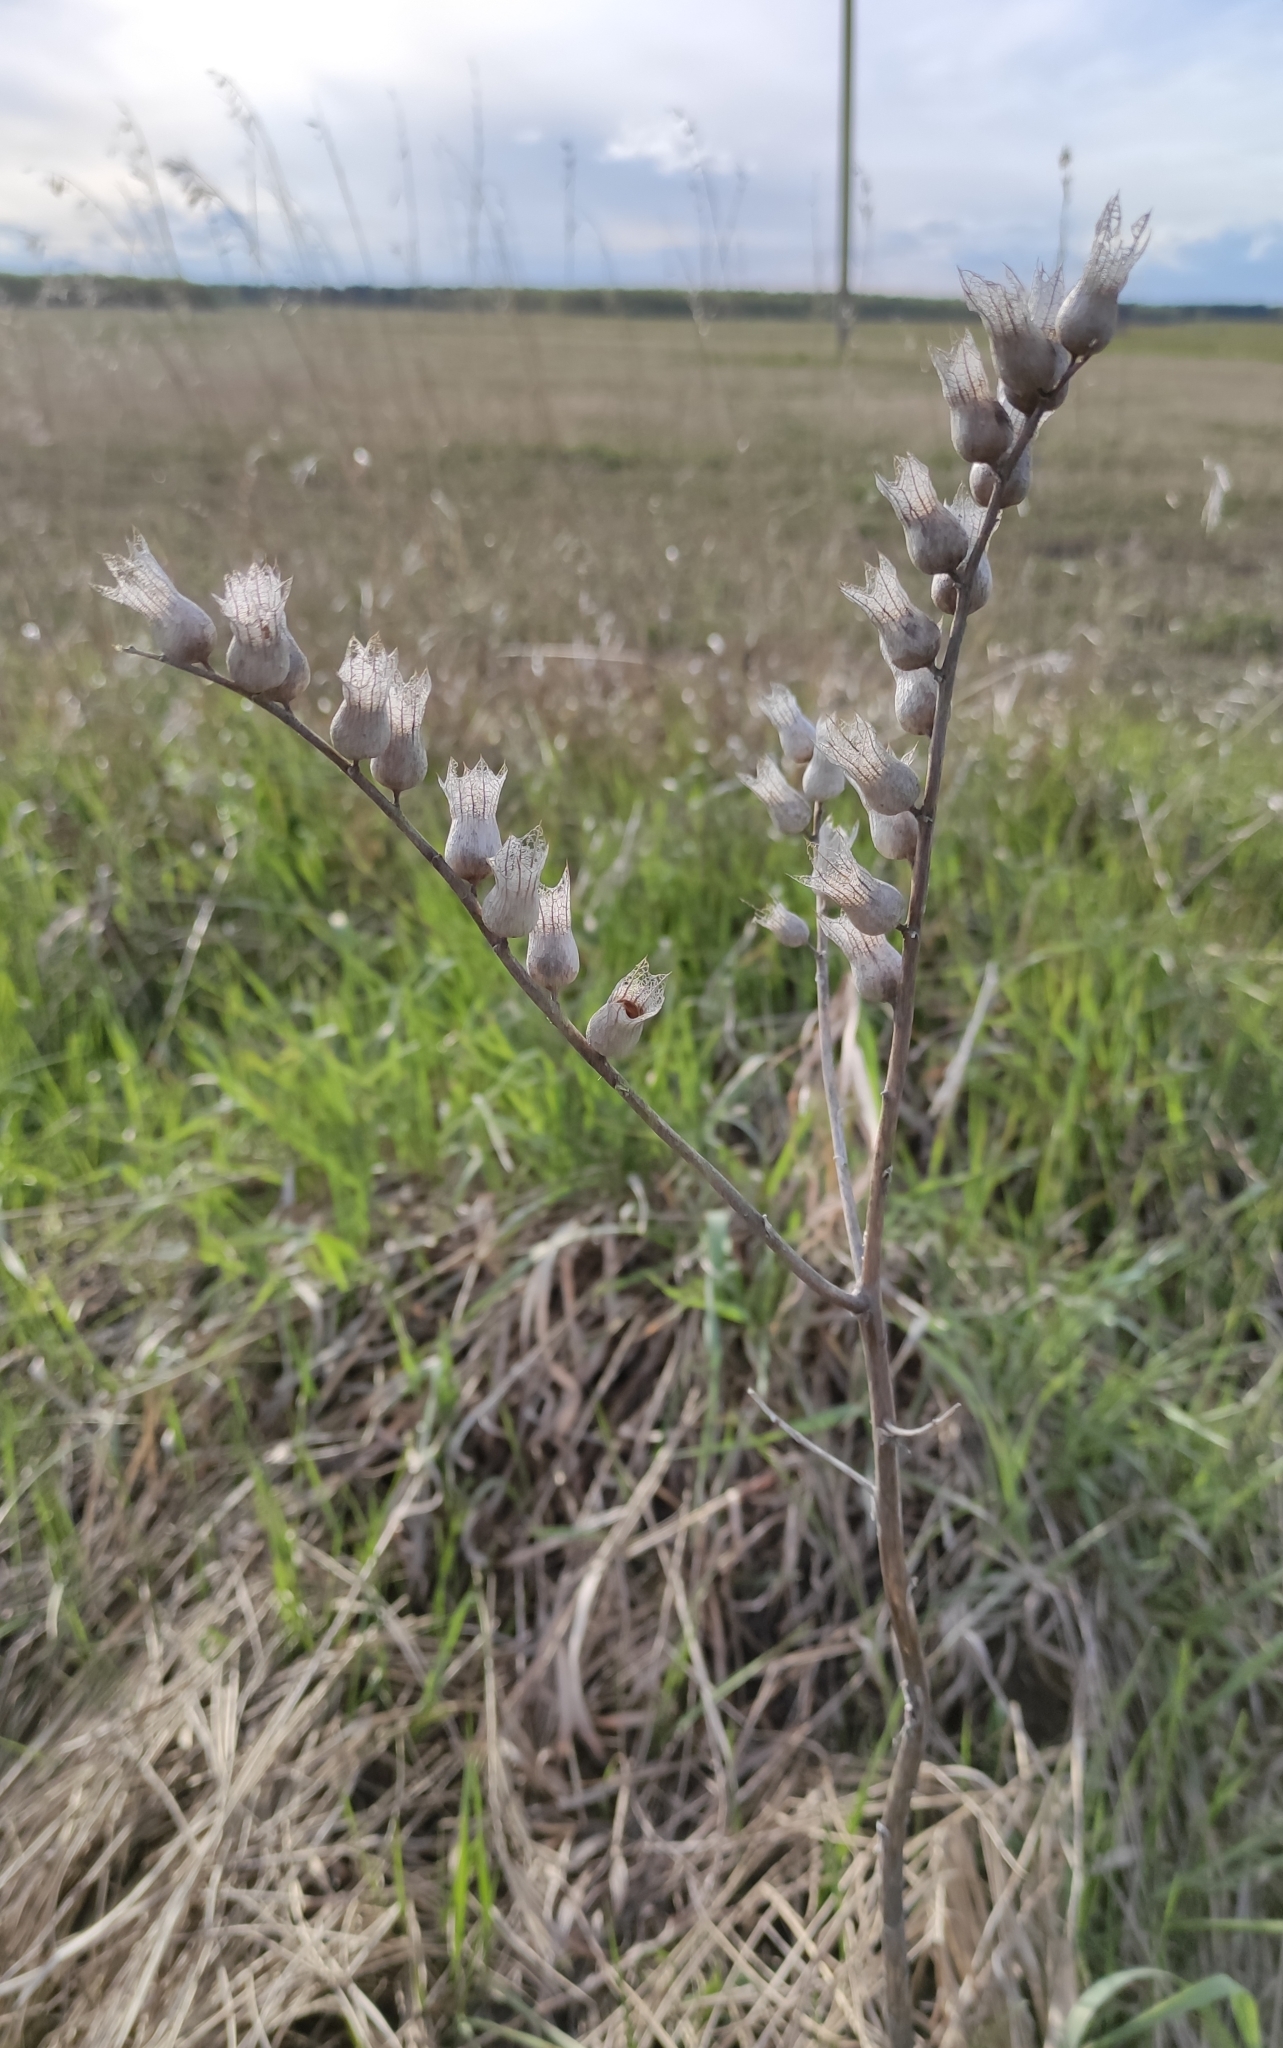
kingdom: Plantae
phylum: Tracheophyta
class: Magnoliopsida
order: Solanales
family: Solanaceae
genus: Hyoscyamus
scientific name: Hyoscyamus niger
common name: Henbane
